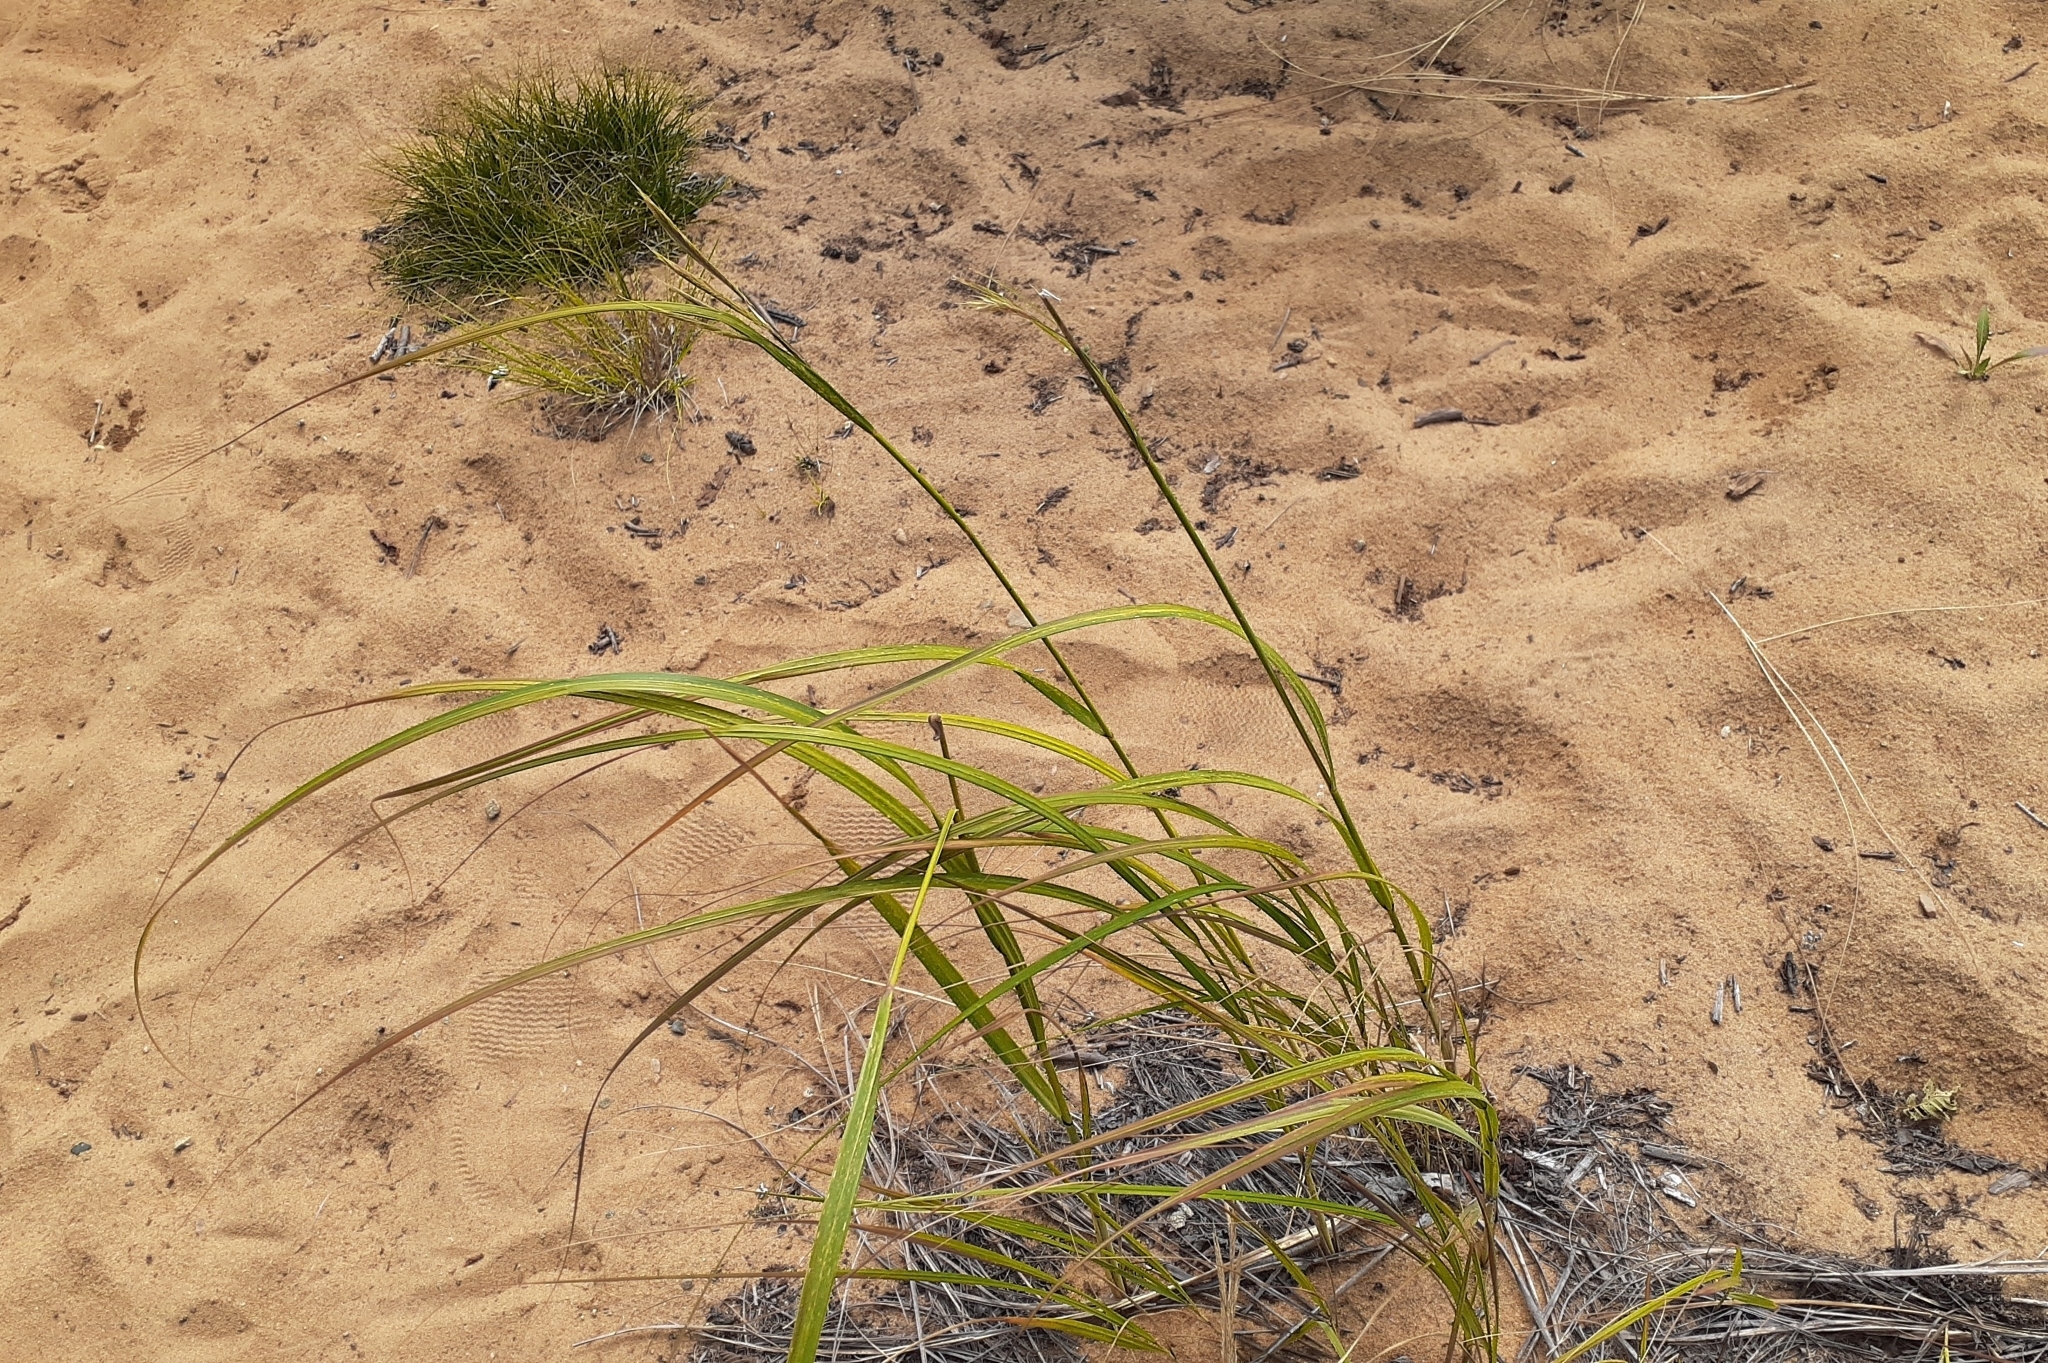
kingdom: Plantae
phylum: Tracheophyta
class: Liliopsida
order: Poales
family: Poaceae
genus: Sporobolus
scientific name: Sporobolus michauxianus
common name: Freshwater cordgrass
